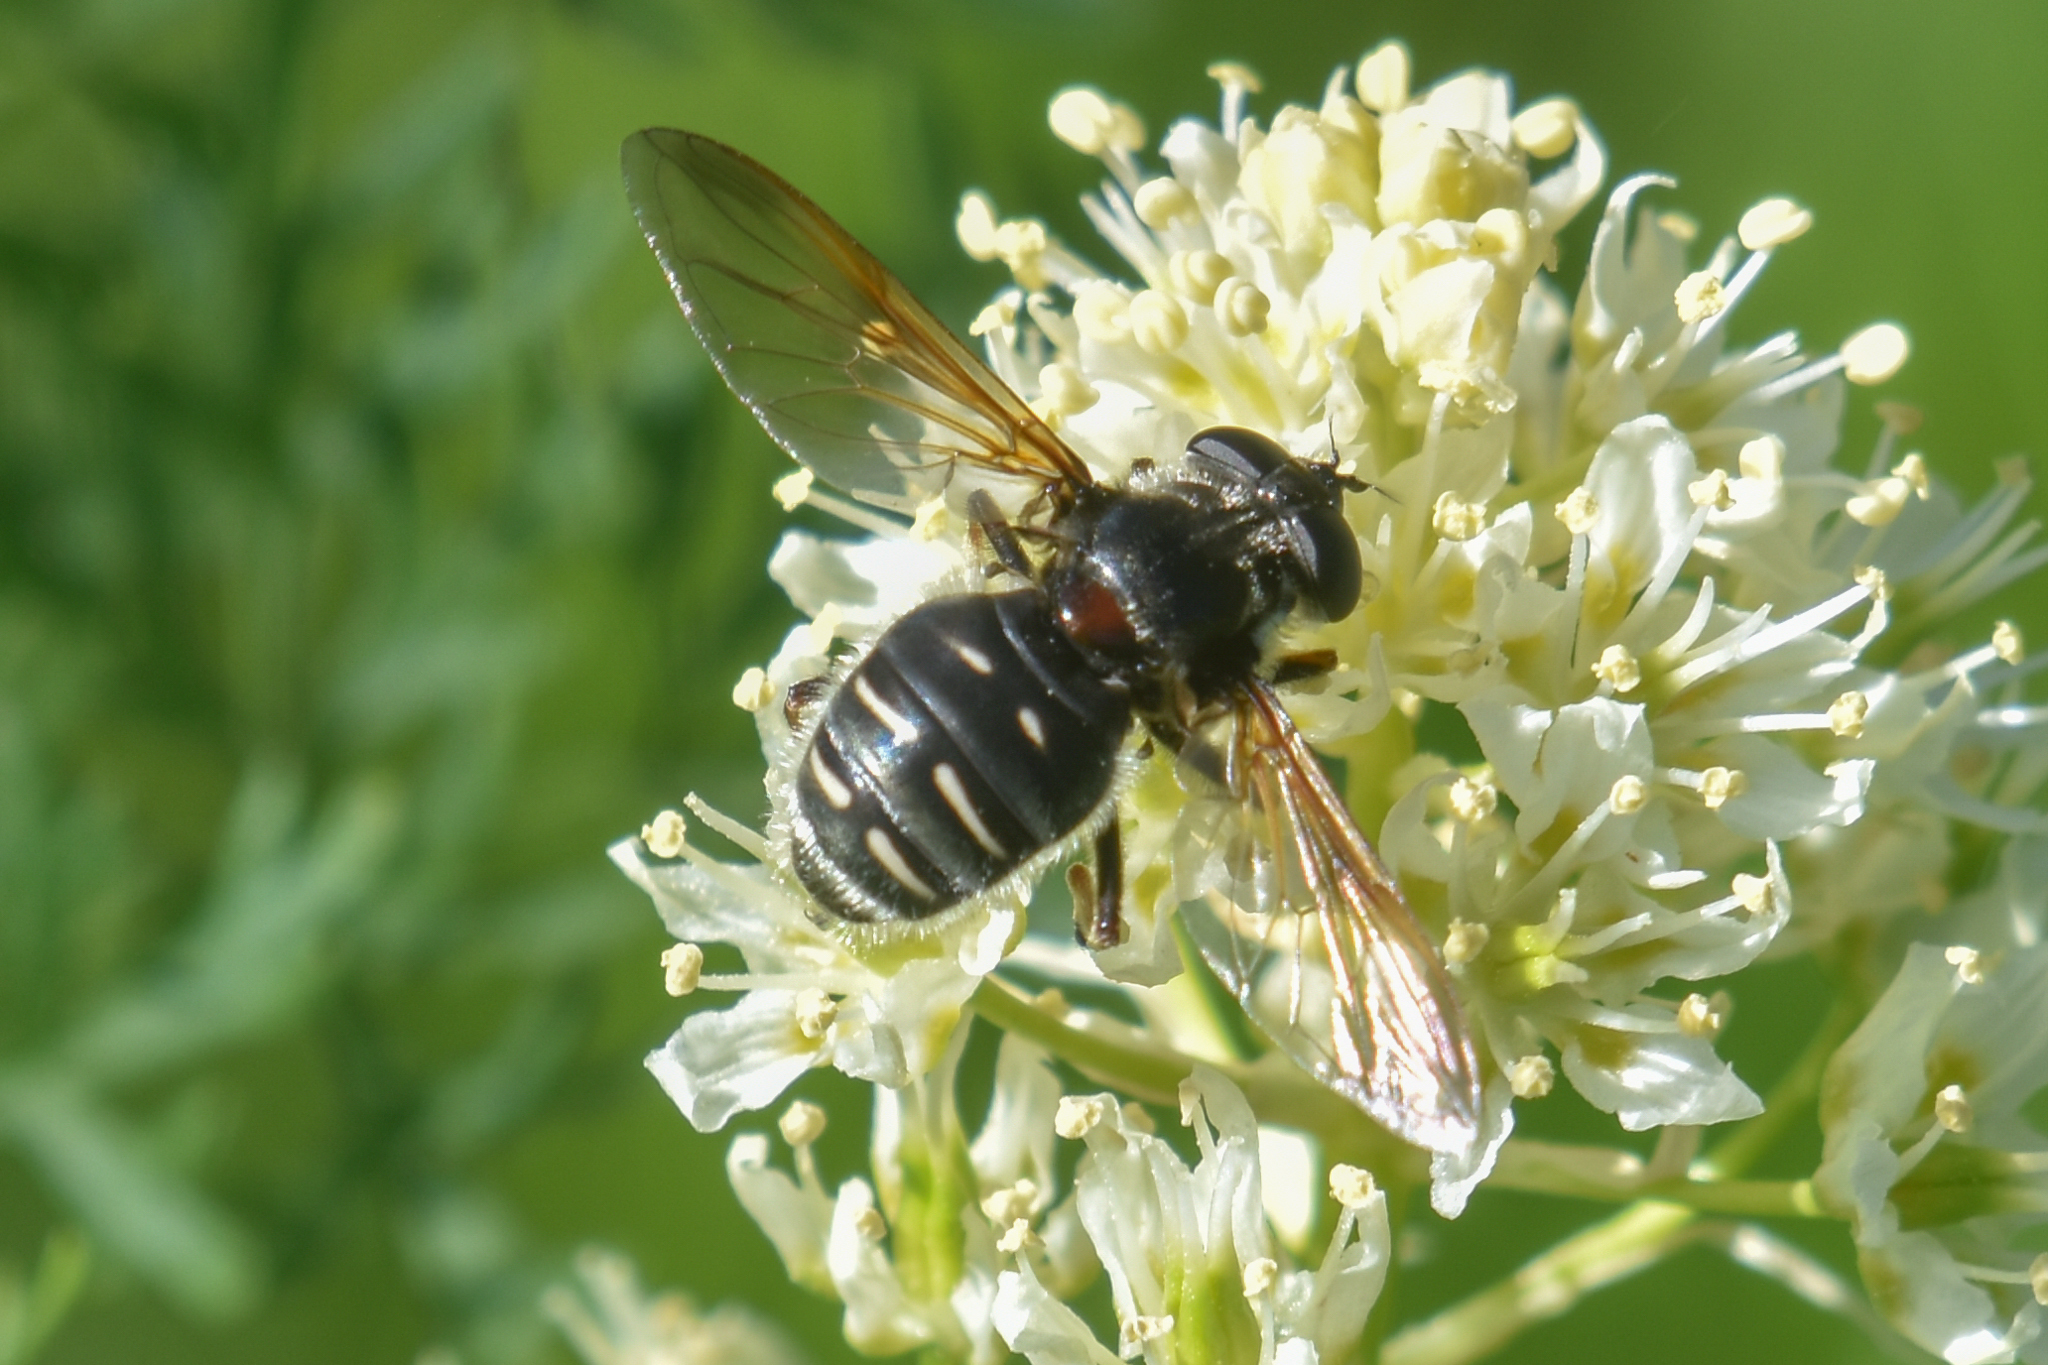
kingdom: Animalia
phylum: Arthropoda
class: Insecta
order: Diptera
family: Syrphidae
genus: Sericomyia
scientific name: Sericomyia militaris
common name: Narrow-banded pond fly
